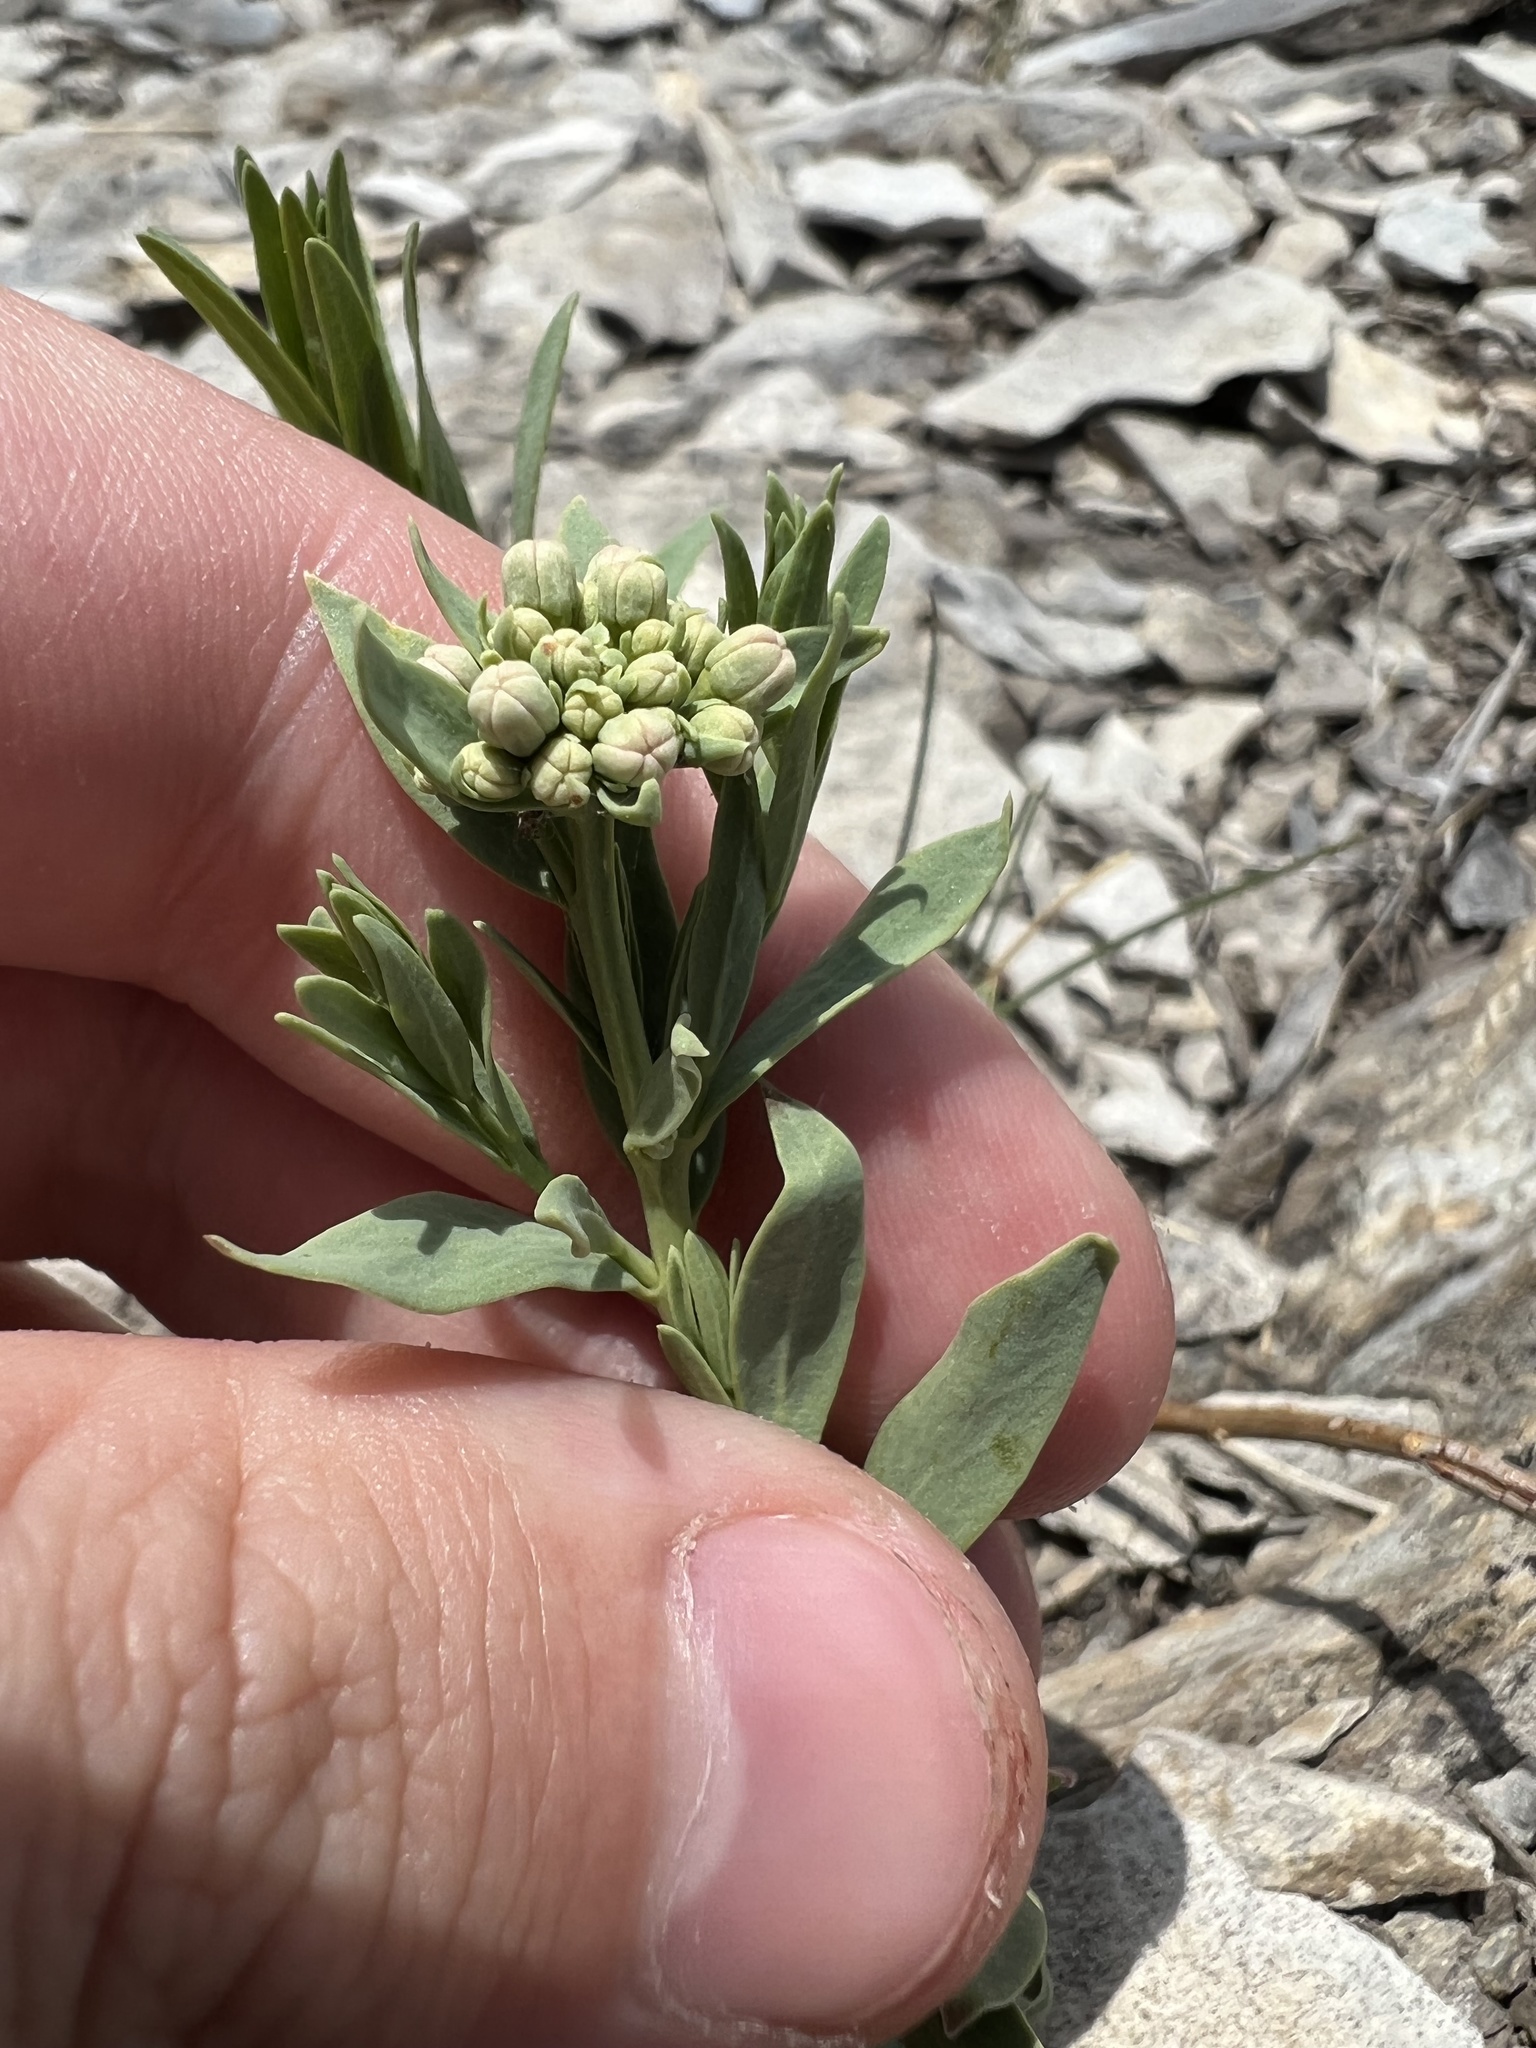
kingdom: Plantae
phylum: Tracheophyta
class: Magnoliopsida
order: Santalales
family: Comandraceae
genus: Comandra
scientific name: Comandra umbellata
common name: Bastard toadflax
